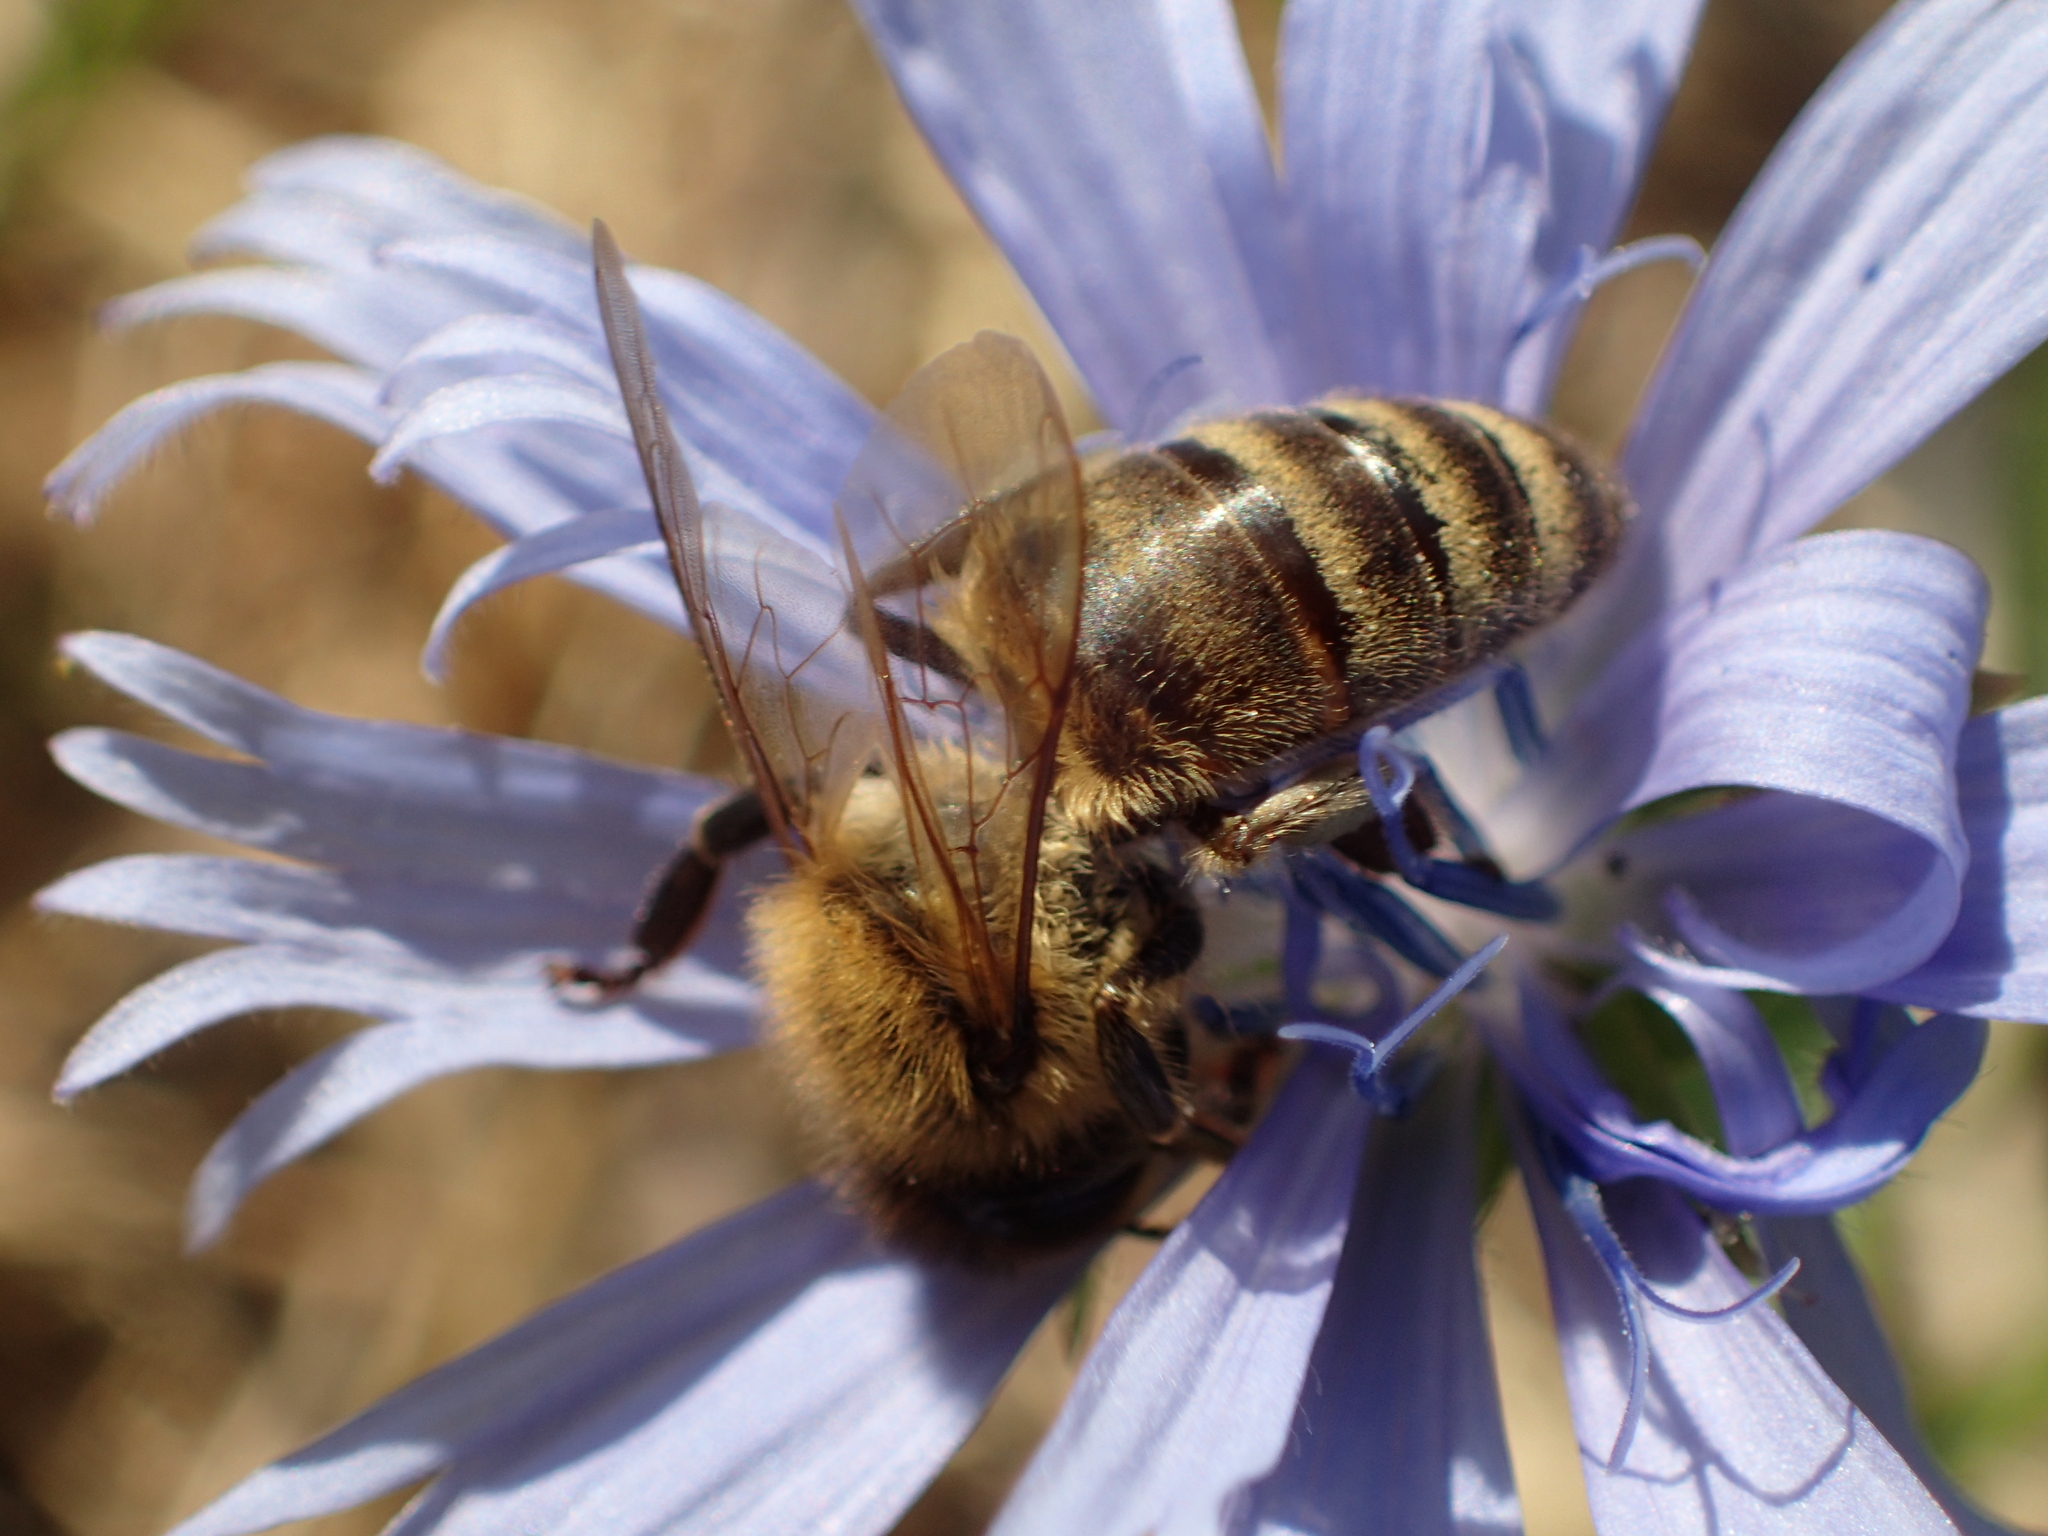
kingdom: Animalia
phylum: Arthropoda
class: Insecta
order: Hymenoptera
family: Apidae
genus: Apis
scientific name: Apis mellifera
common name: Honey bee
